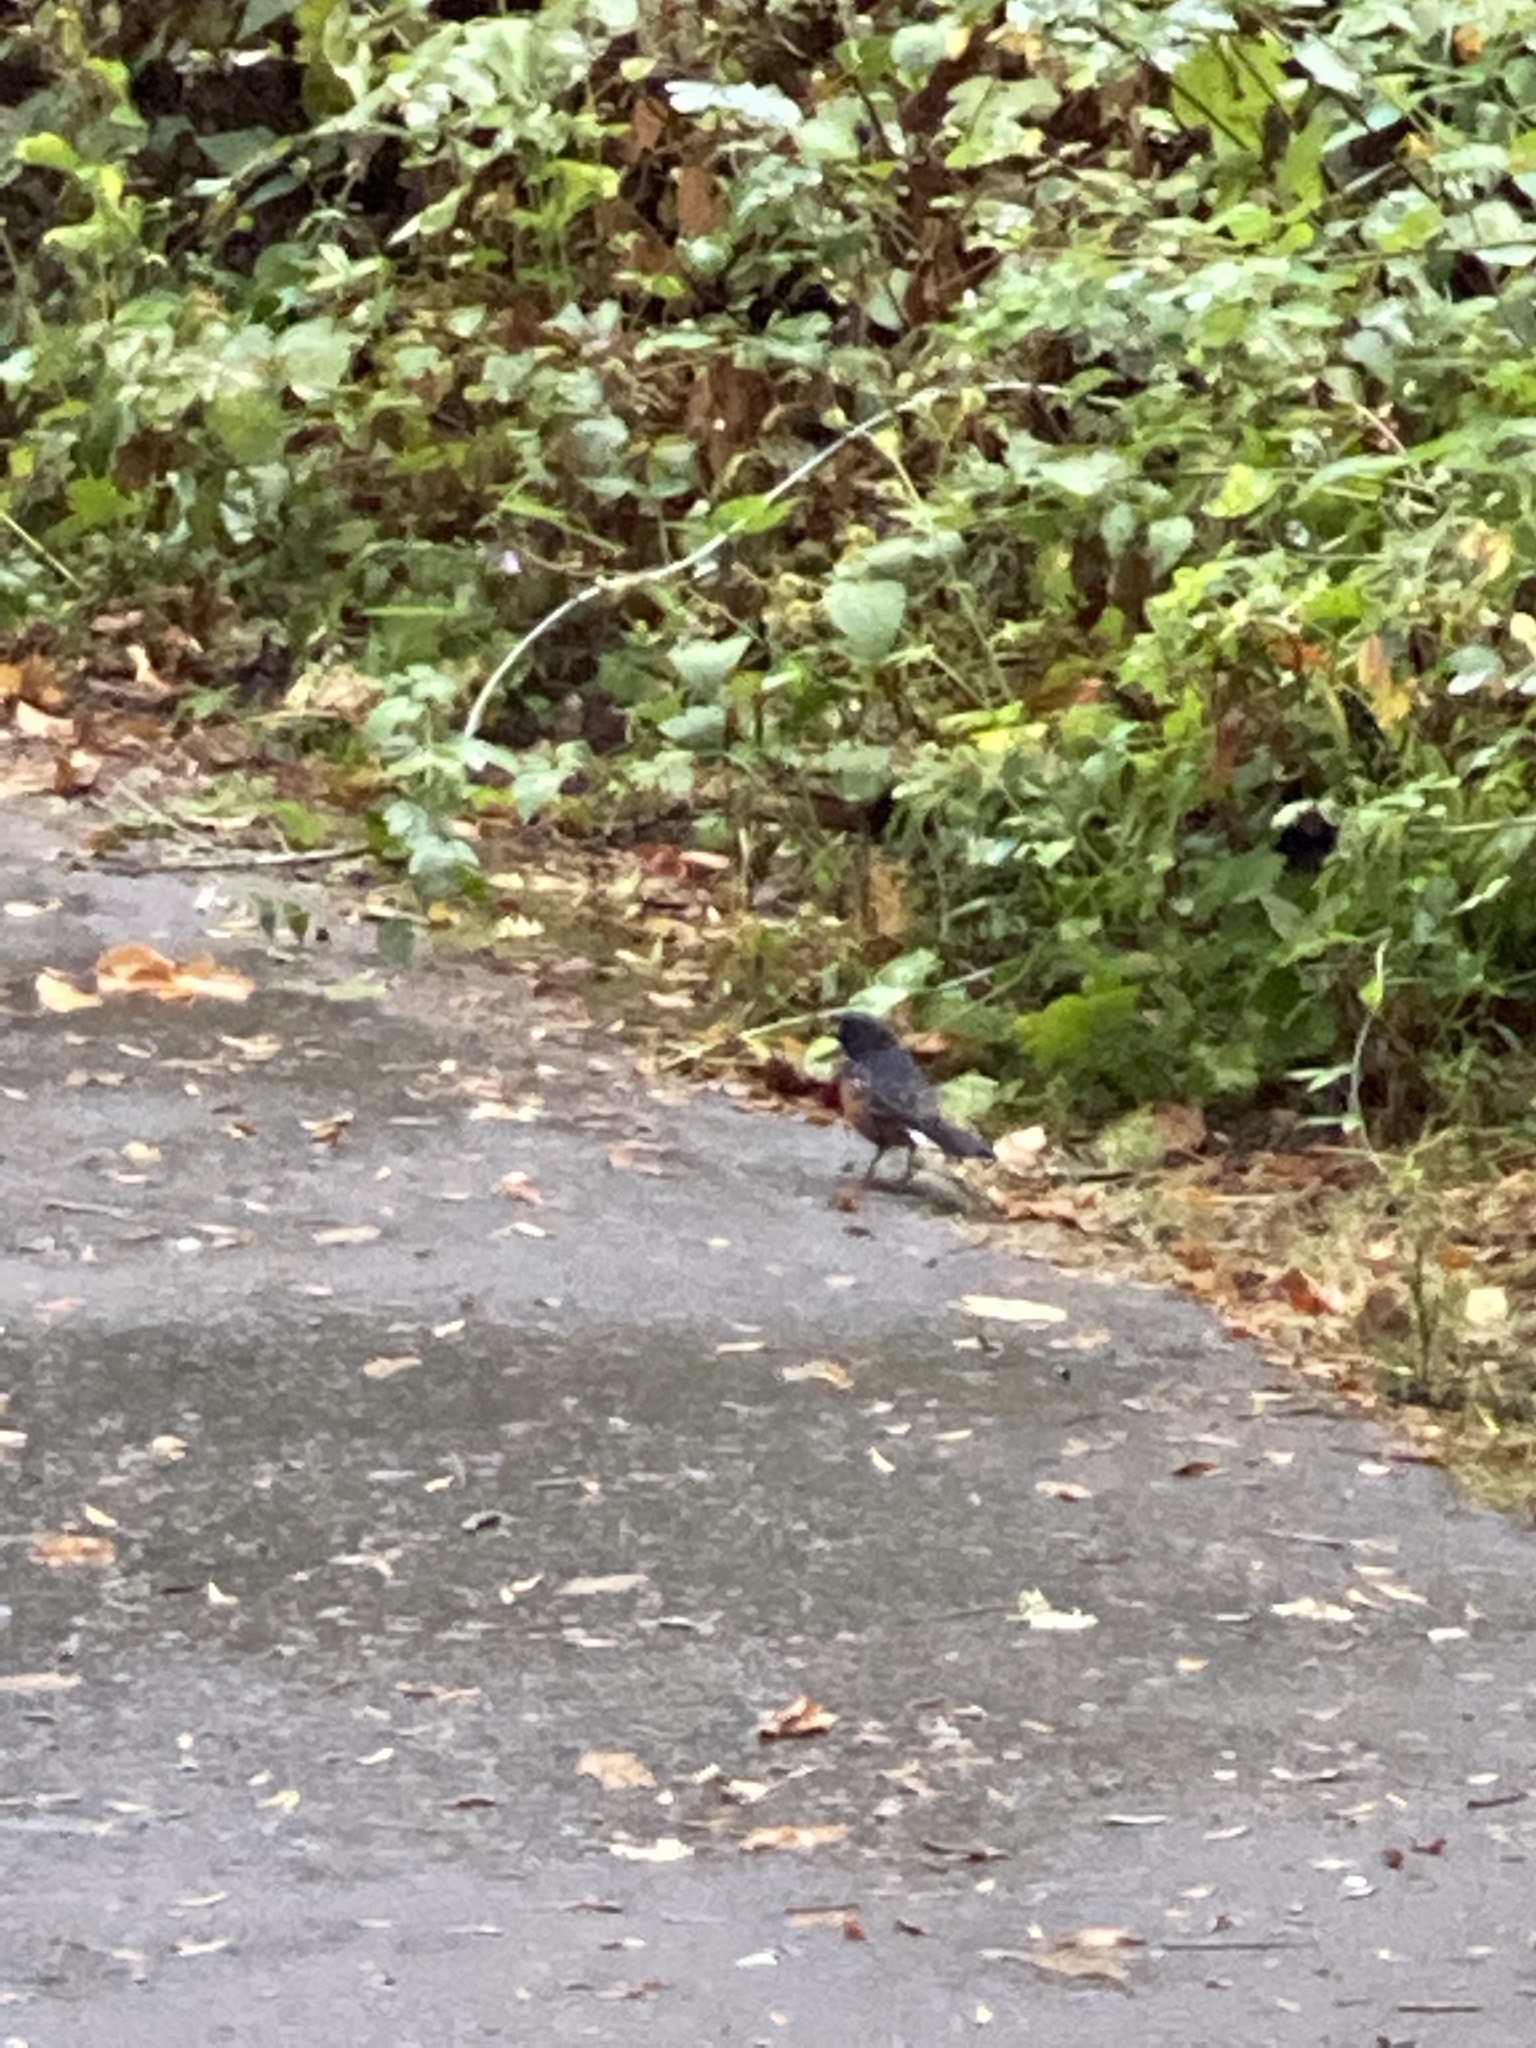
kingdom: Animalia
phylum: Chordata
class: Aves
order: Passeriformes
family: Passerellidae
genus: Pipilo
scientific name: Pipilo maculatus
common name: Spotted towhee
